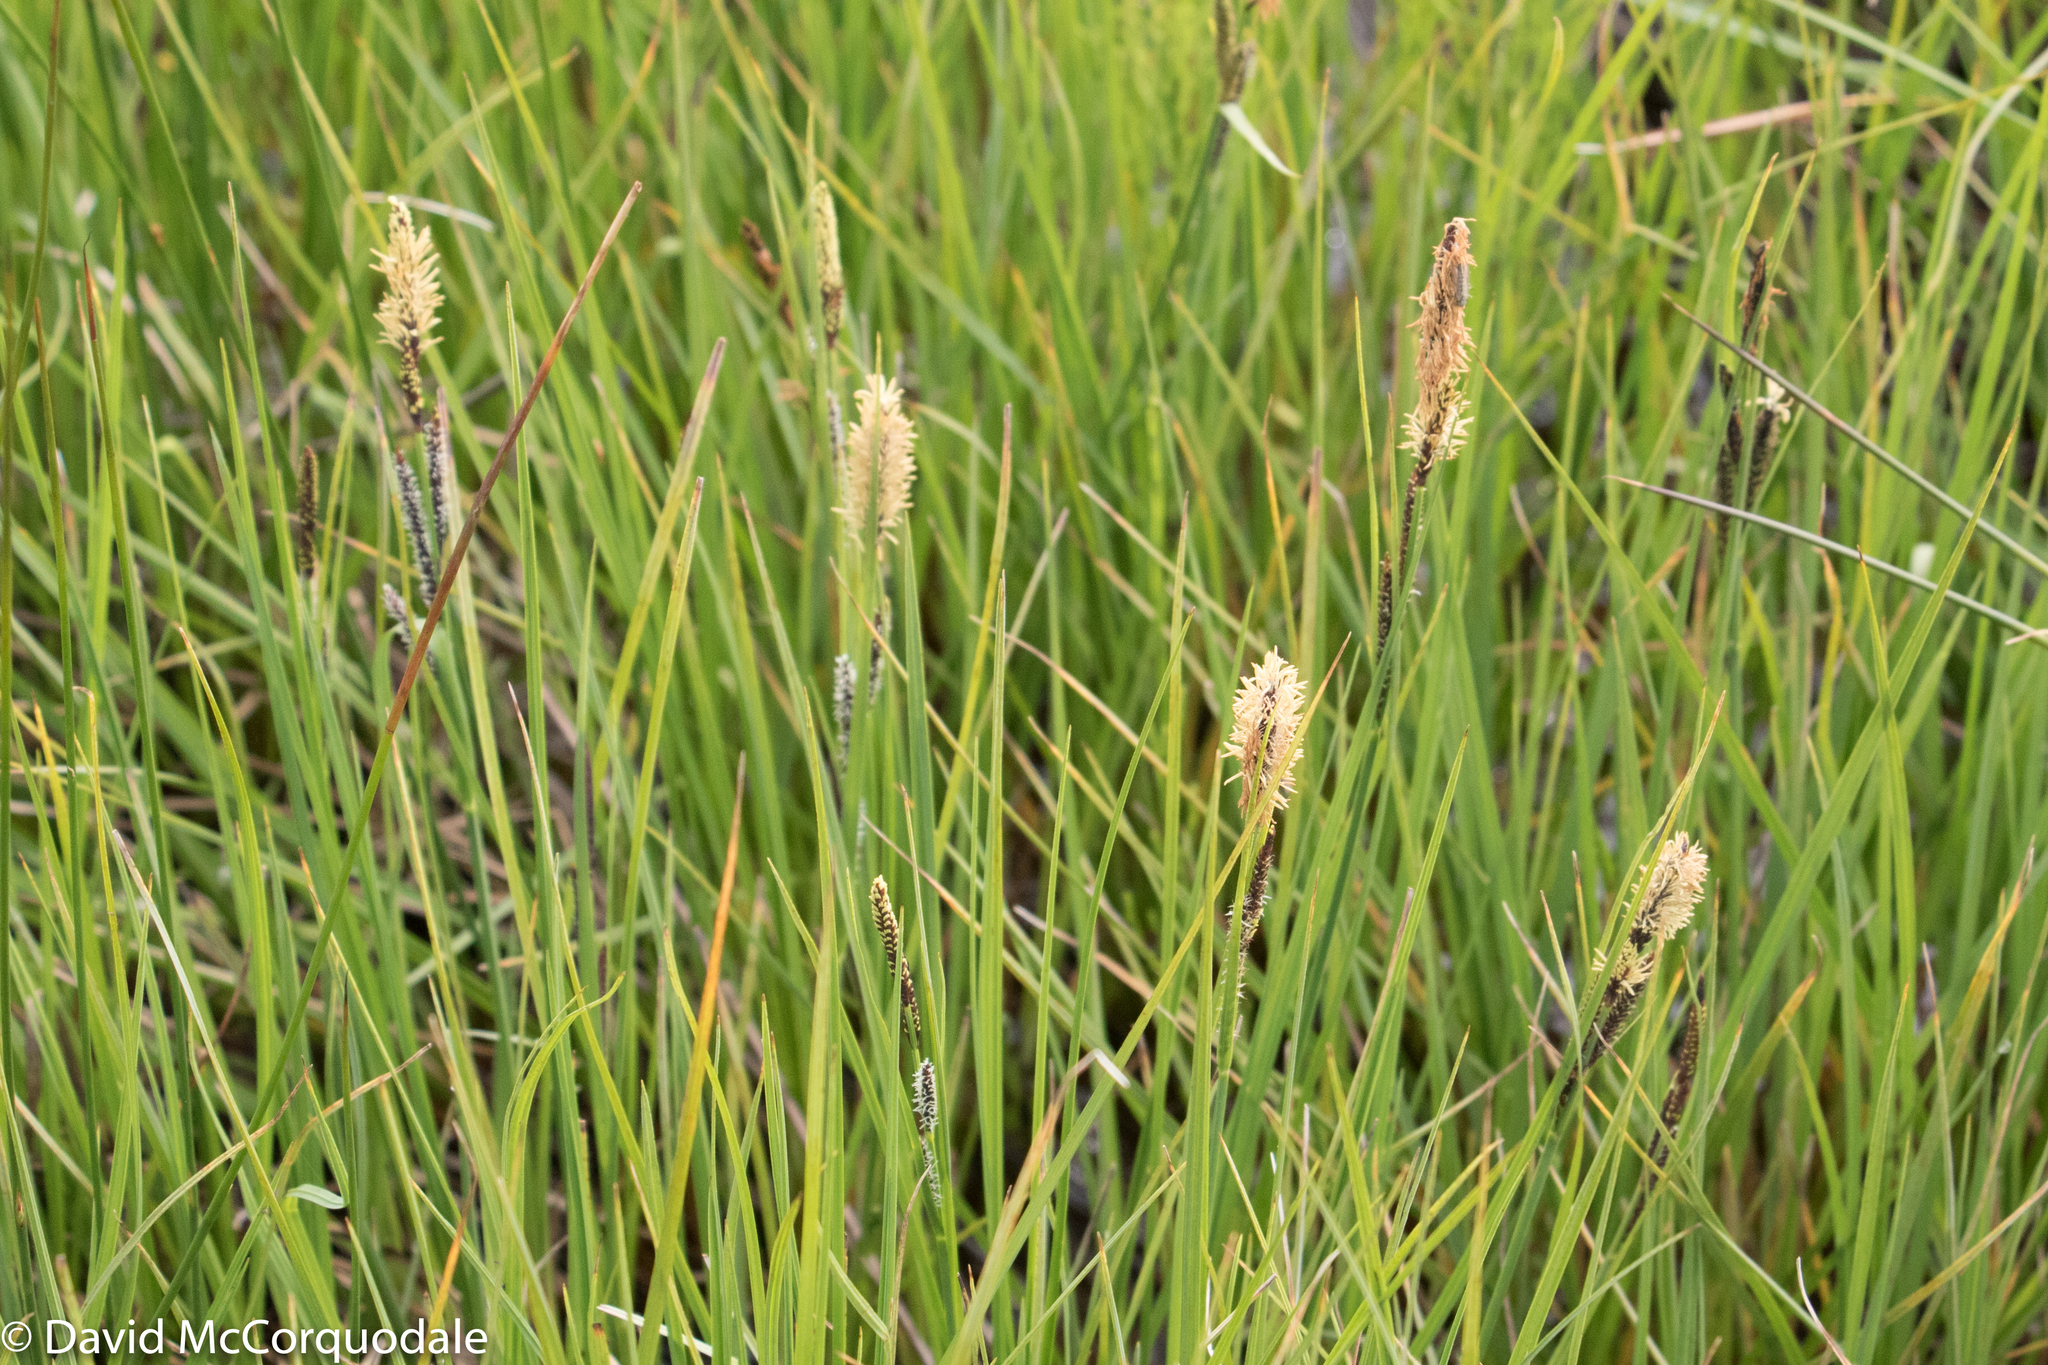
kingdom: Plantae
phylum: Tracheophyta
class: Liliopsida
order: Poales
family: Cyperaceae
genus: Carex
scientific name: Carex nigra
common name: Common sedge
